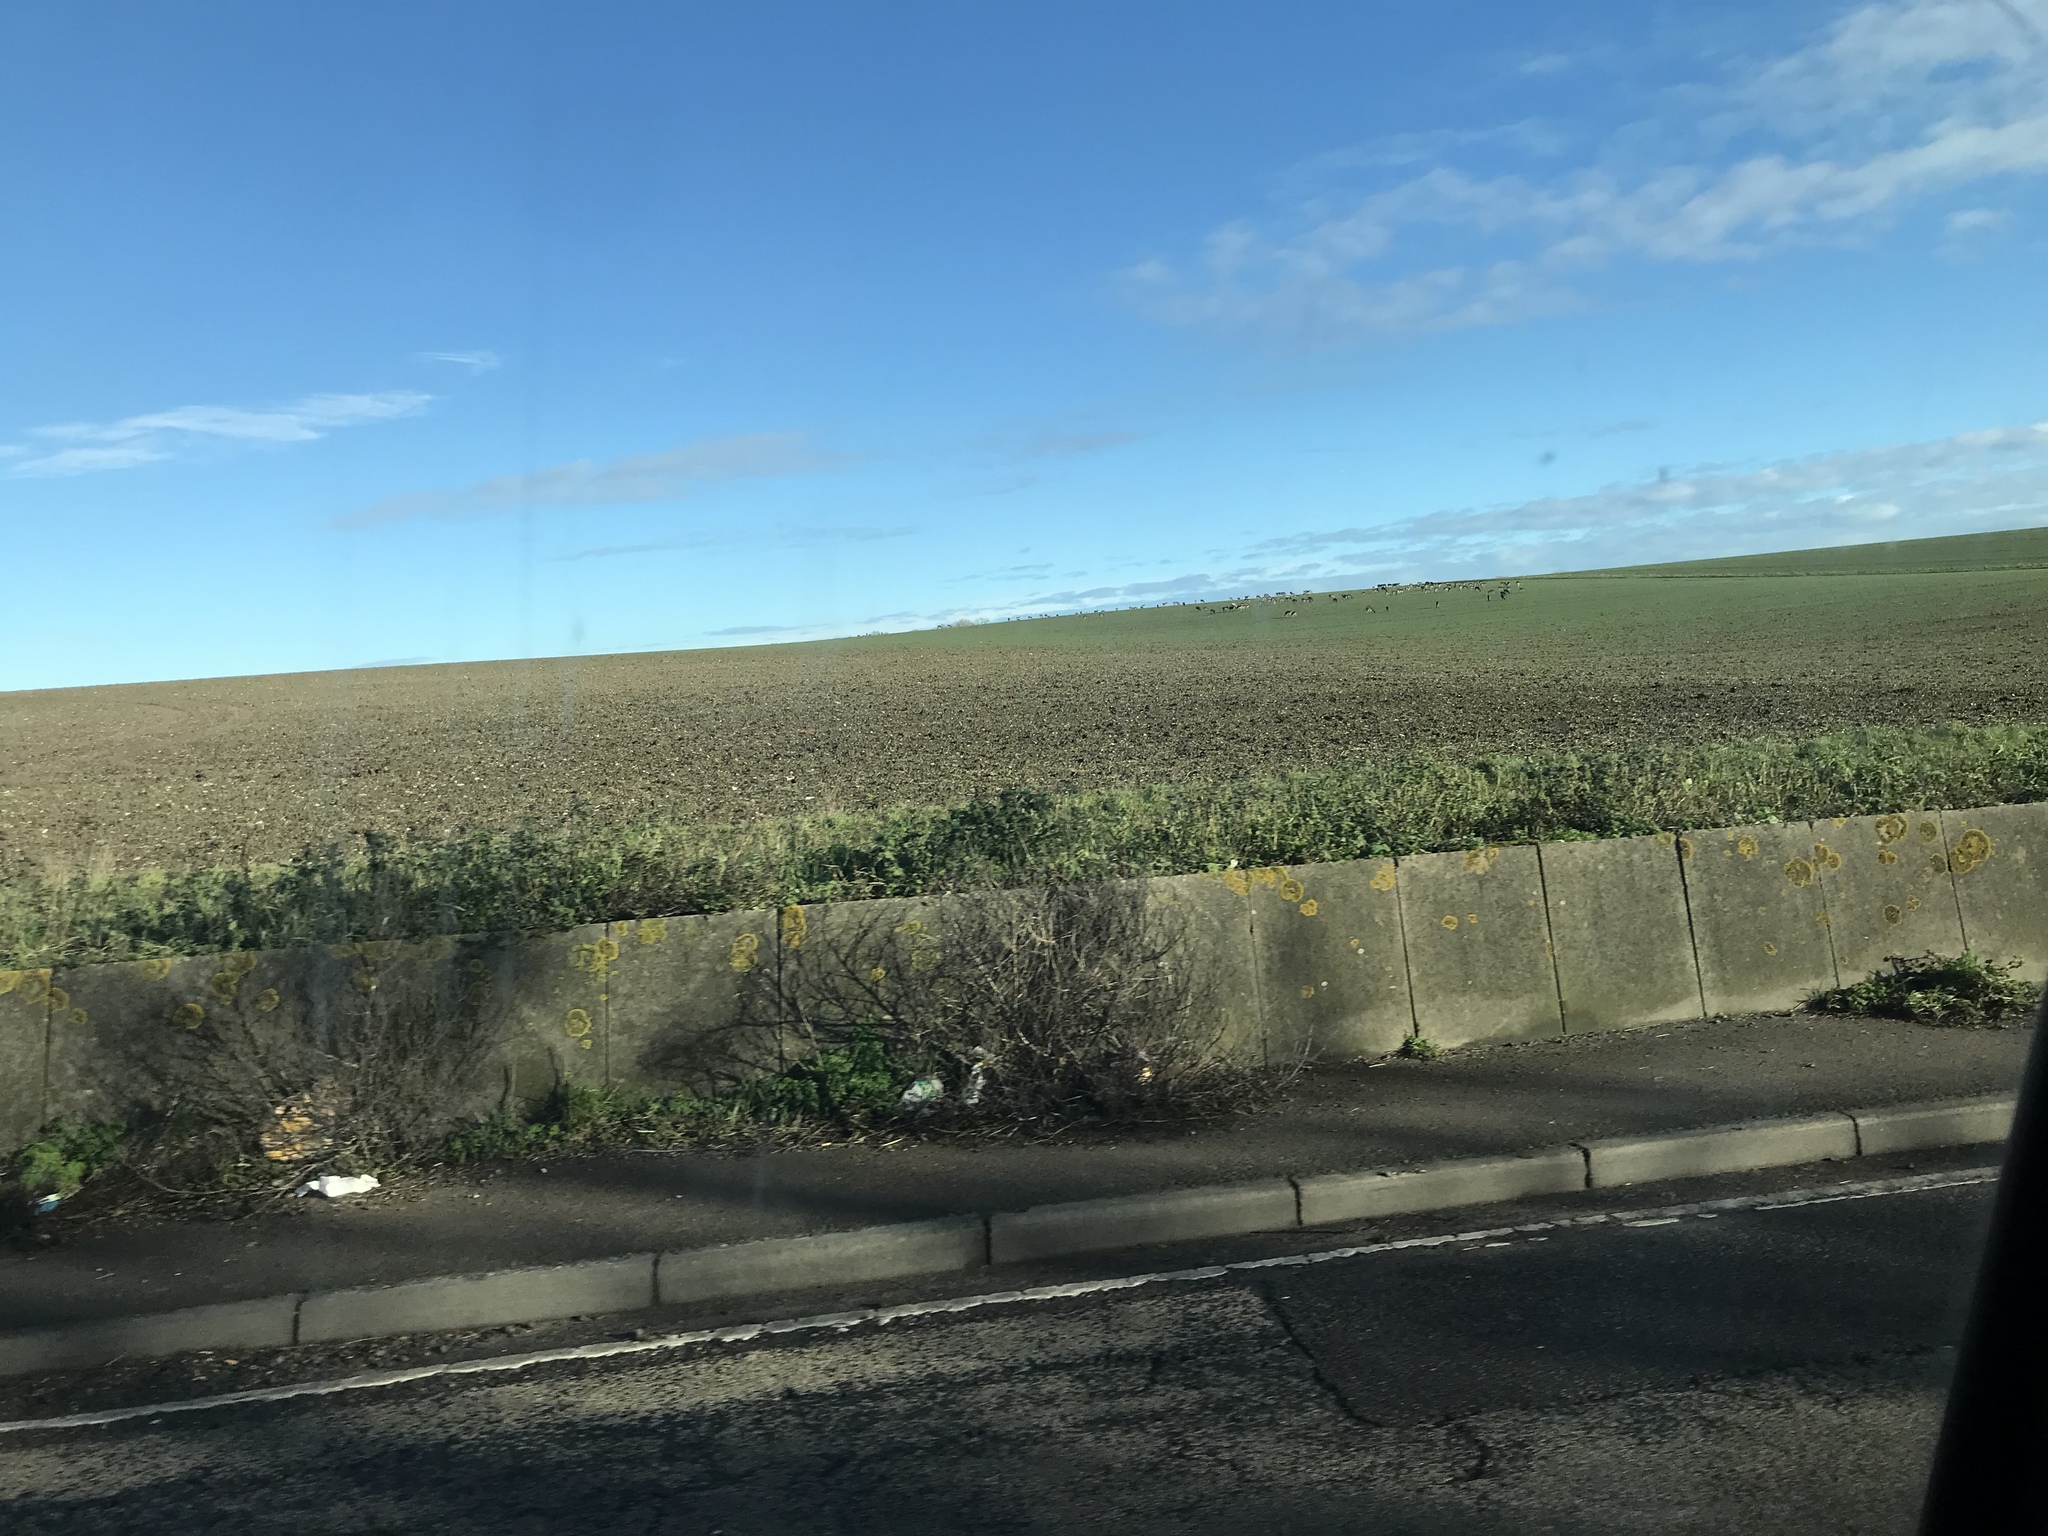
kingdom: Animalia
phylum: Chordata
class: Mammalia
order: Artiodactyla
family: Cervidae
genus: Dama
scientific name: Dama dama
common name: Fallow deer
